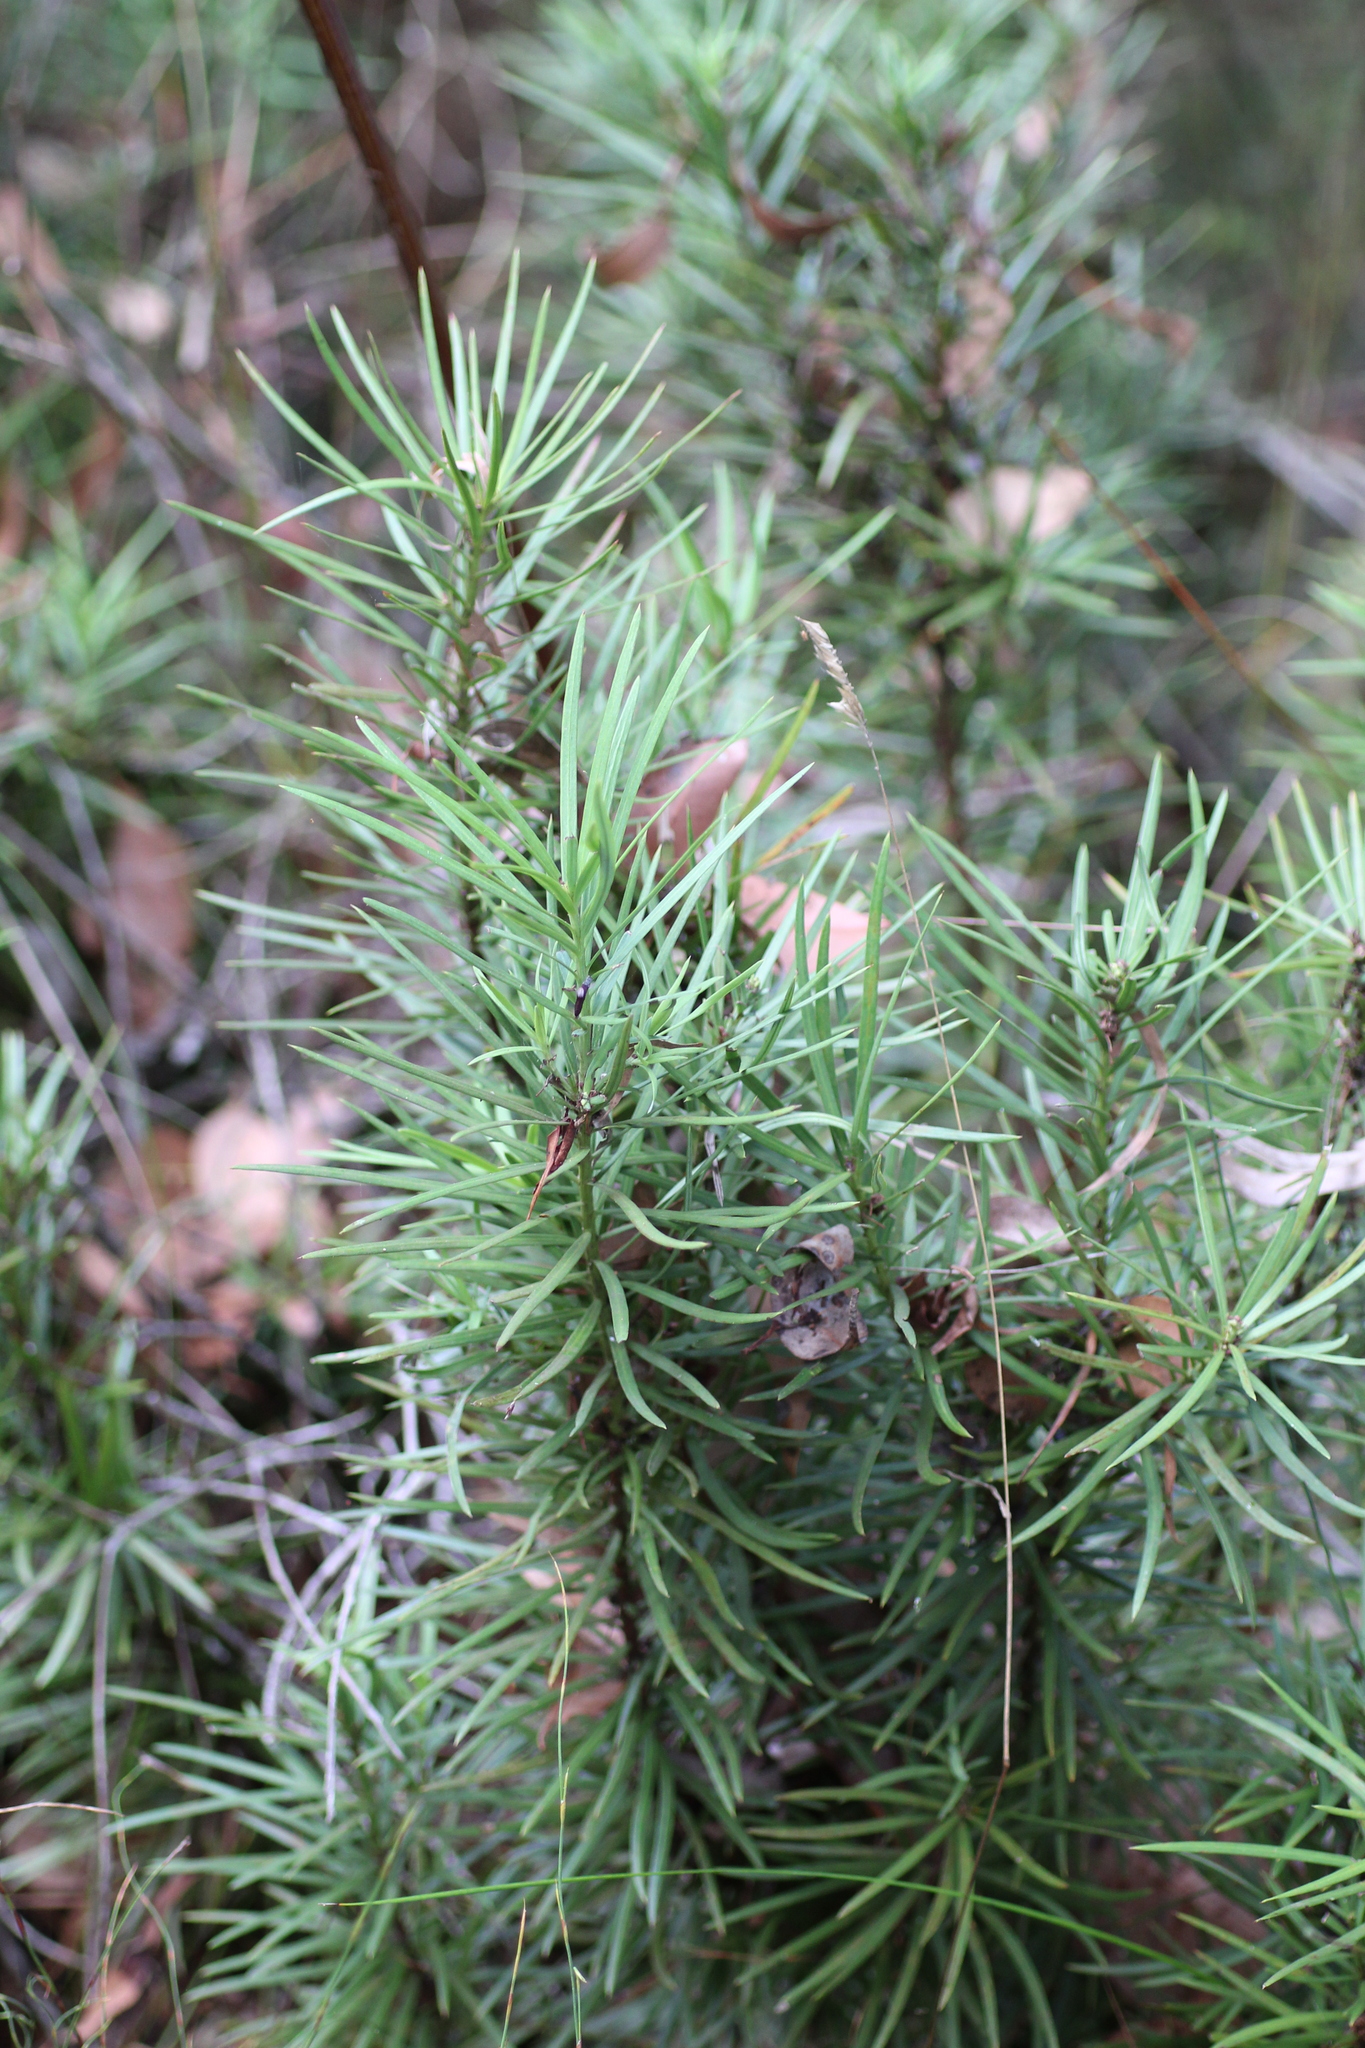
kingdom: Plantae
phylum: Tracheophyta
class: Pinopsida
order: Pinales
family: Podocarpaceae
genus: Podocarpus
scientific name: Podocarpus drouynianus
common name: Emu berry
